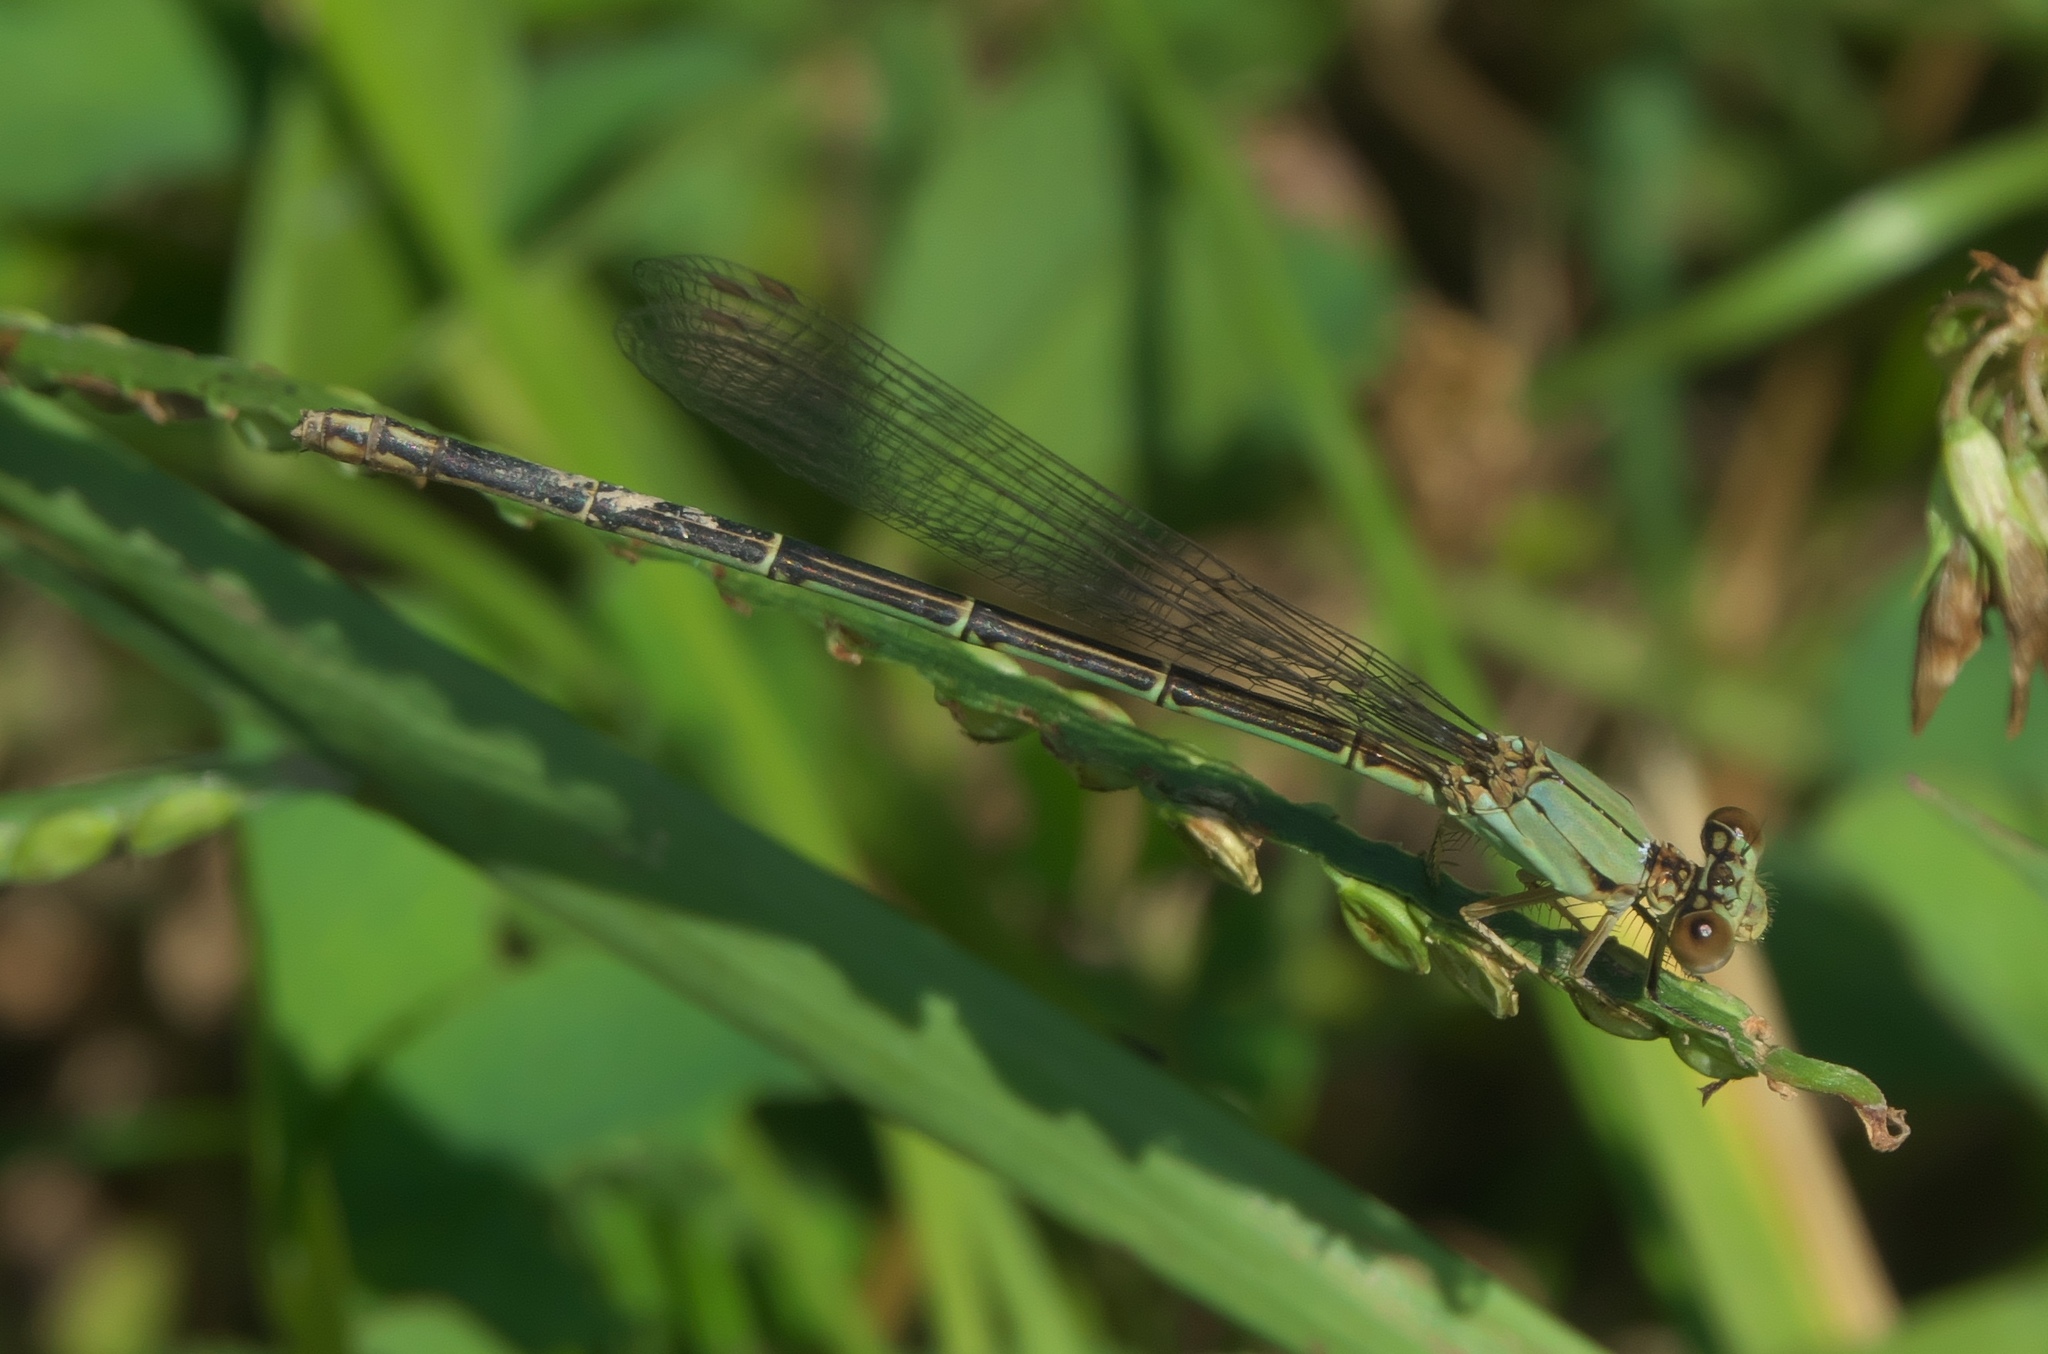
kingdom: Animalia
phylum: Arthropoda
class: Insecta
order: Odonata
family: Coenagrionidae
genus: Argia
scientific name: Argia apicalis
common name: Blue-fronted dancer
